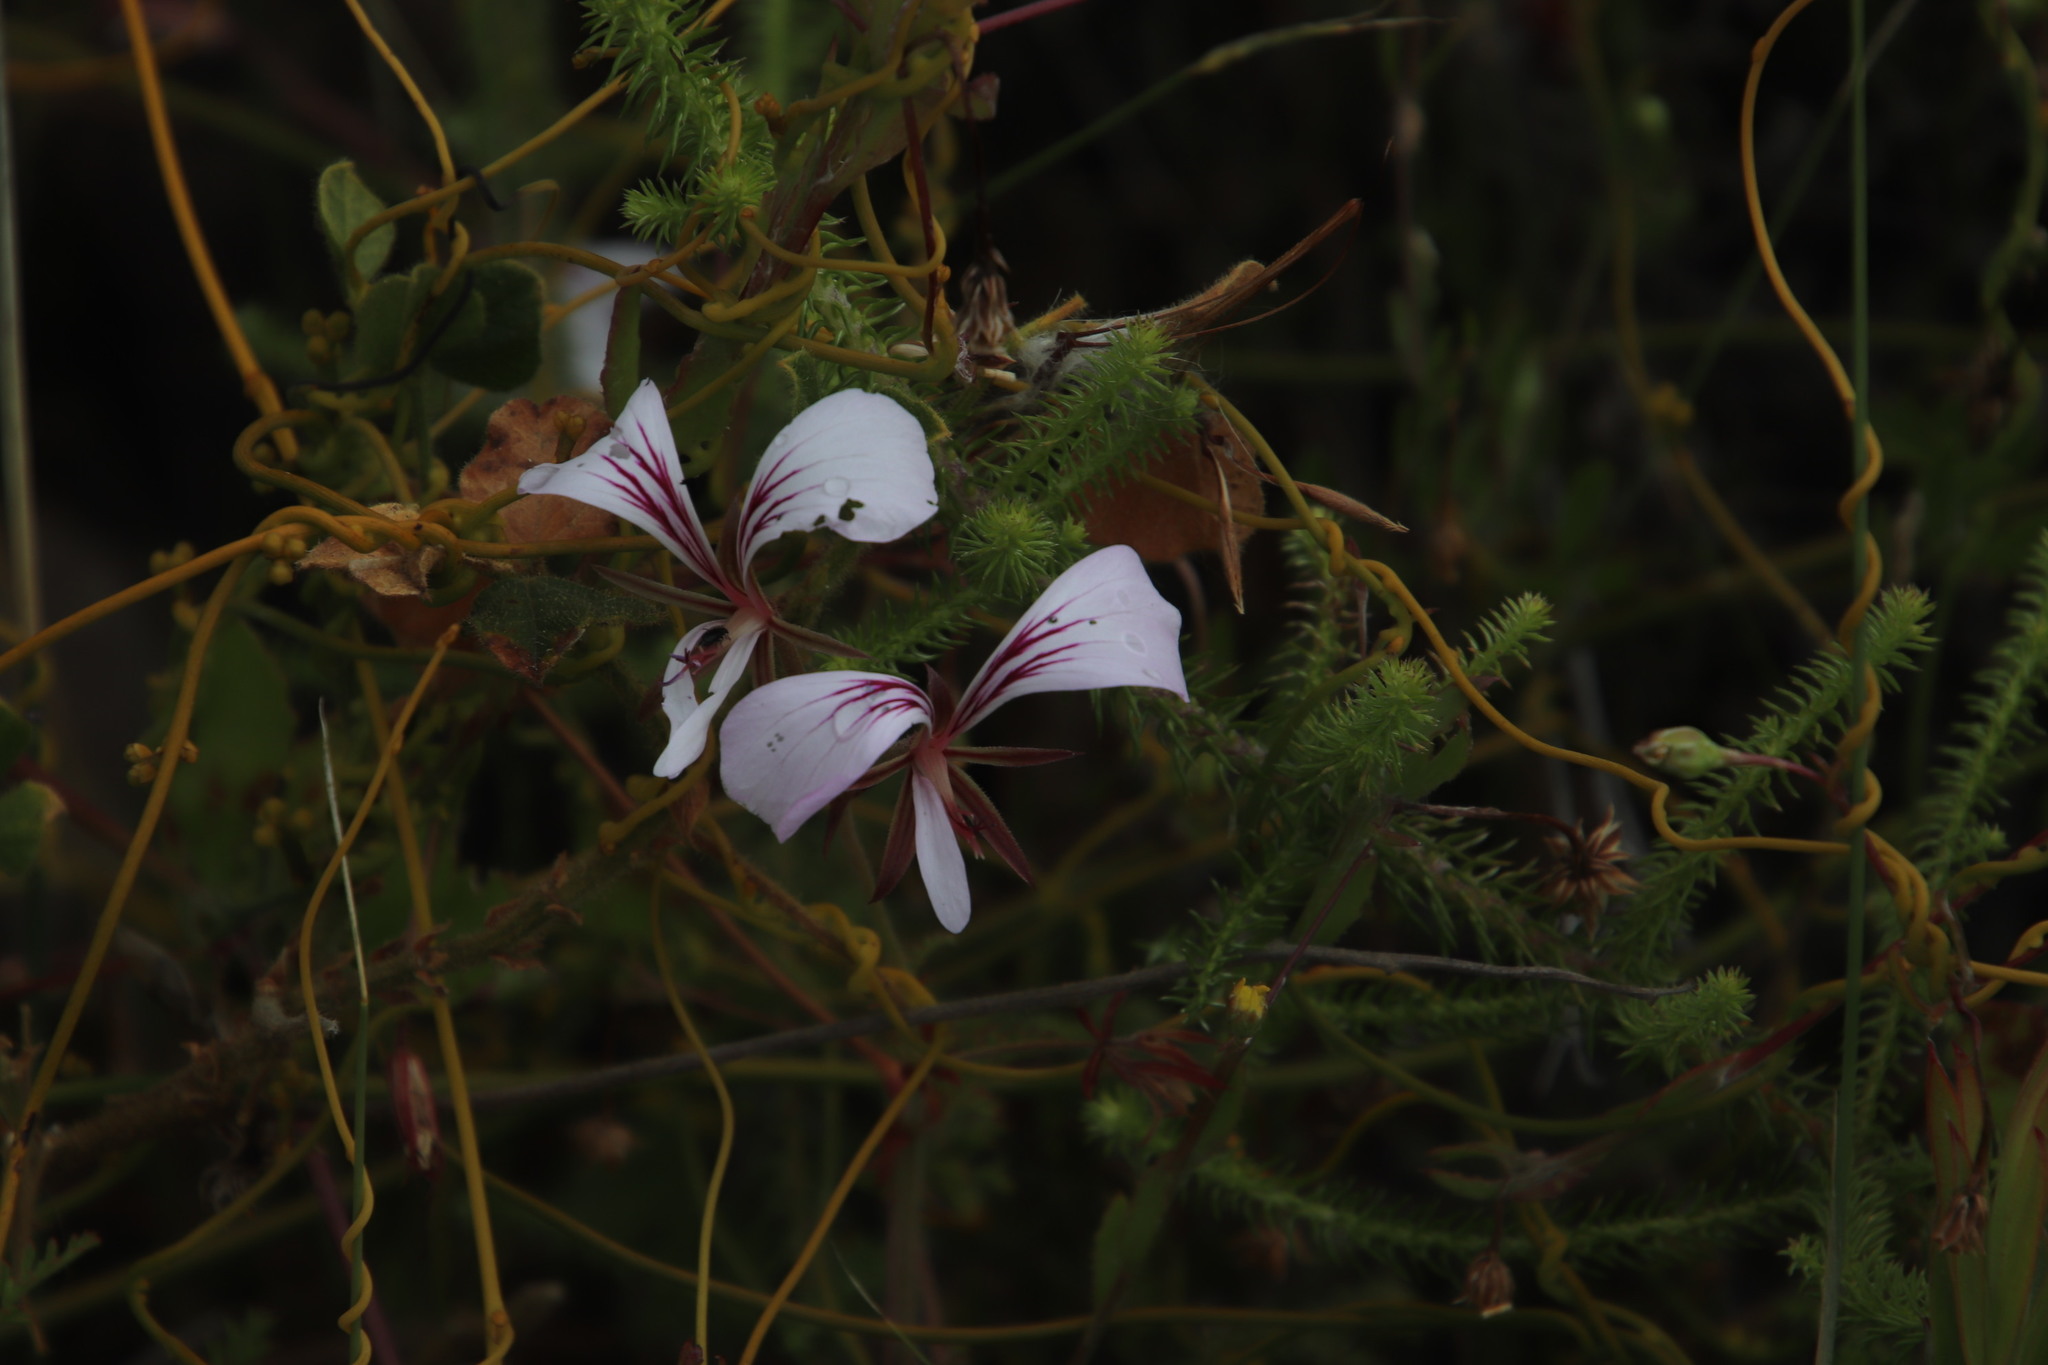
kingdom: Plantae
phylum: Tracheophyta
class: Magnoliopsida
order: Geraniales
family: Geraniaceae
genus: Pelargonium
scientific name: Pelargonium longicaule
